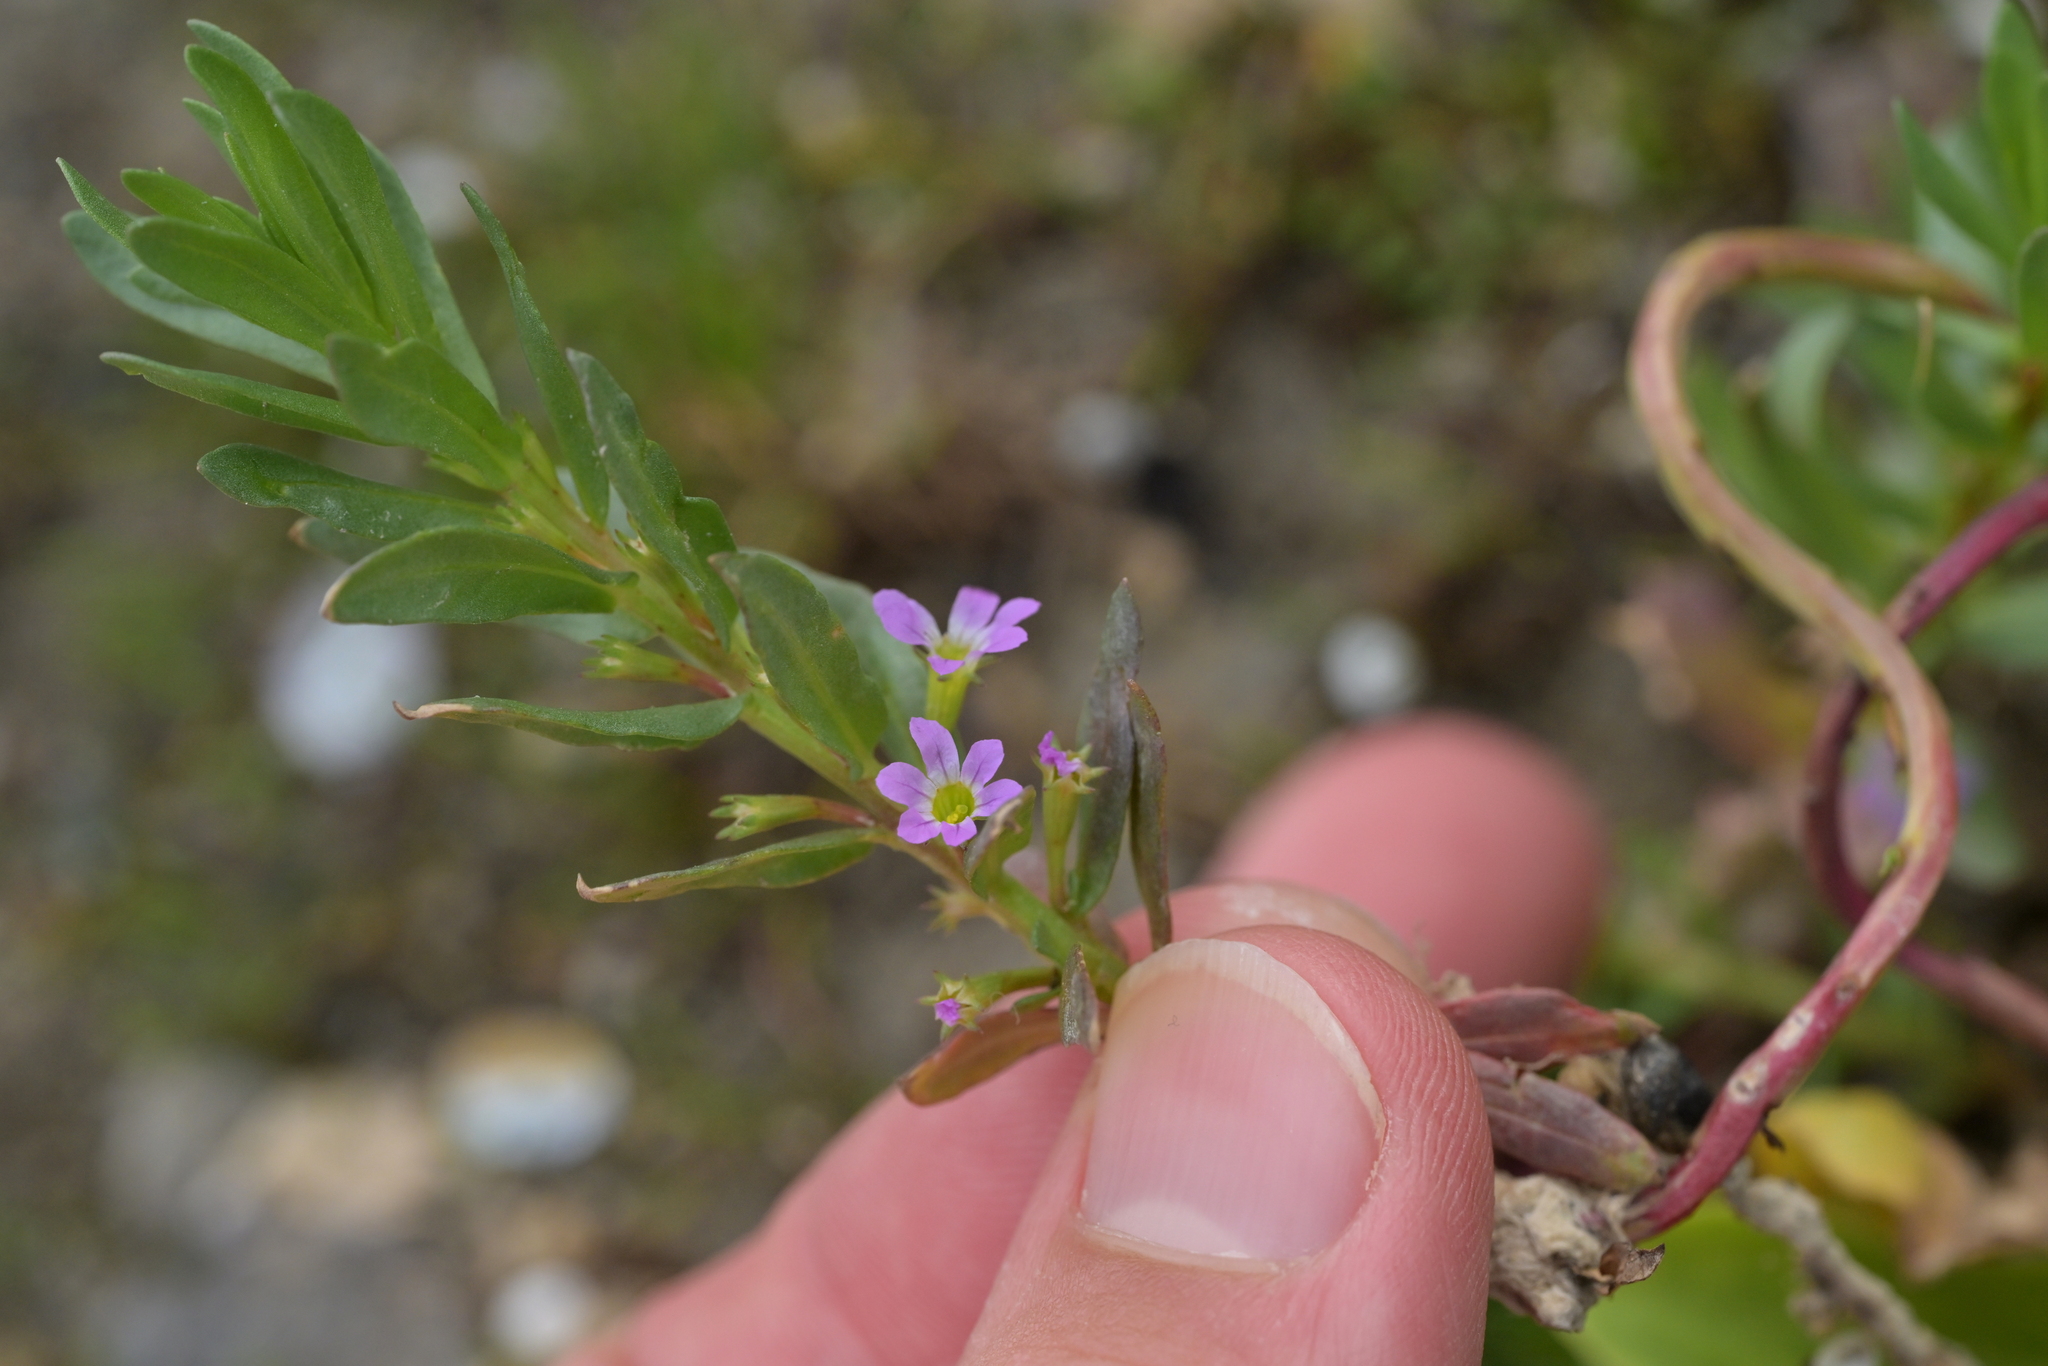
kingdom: Plantae
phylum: Tracheophyta
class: Magnoliopsida
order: Myrtales
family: Lythraceae
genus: Lythrum
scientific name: Lythrum hyssopifolia
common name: Grass-poly
